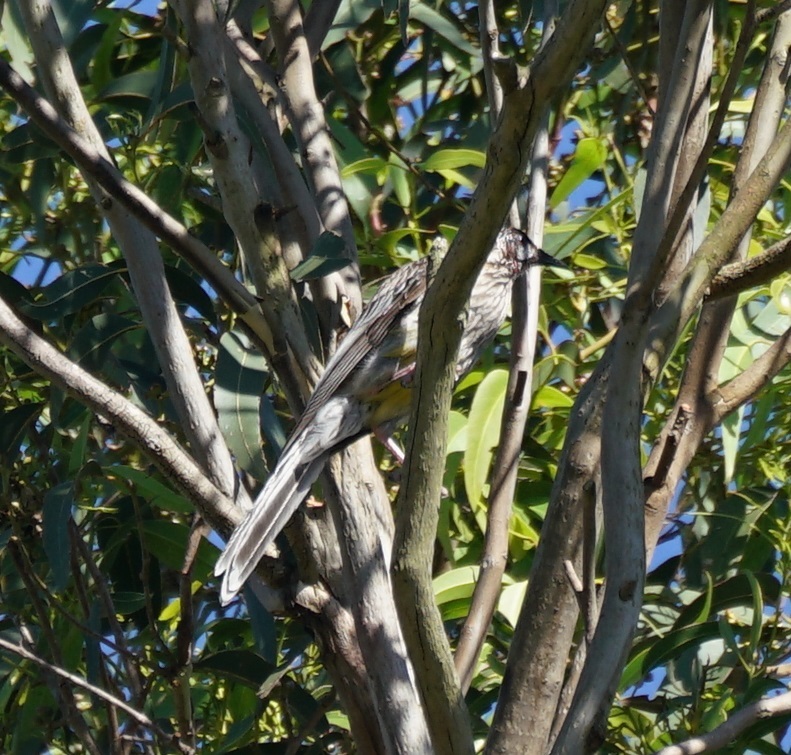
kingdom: Animalia
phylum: Chordata
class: Aves
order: Passeriformes
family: Meliphagidae
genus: Anthochaera
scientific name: Anthochaera carunculata
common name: Red wattlebird
